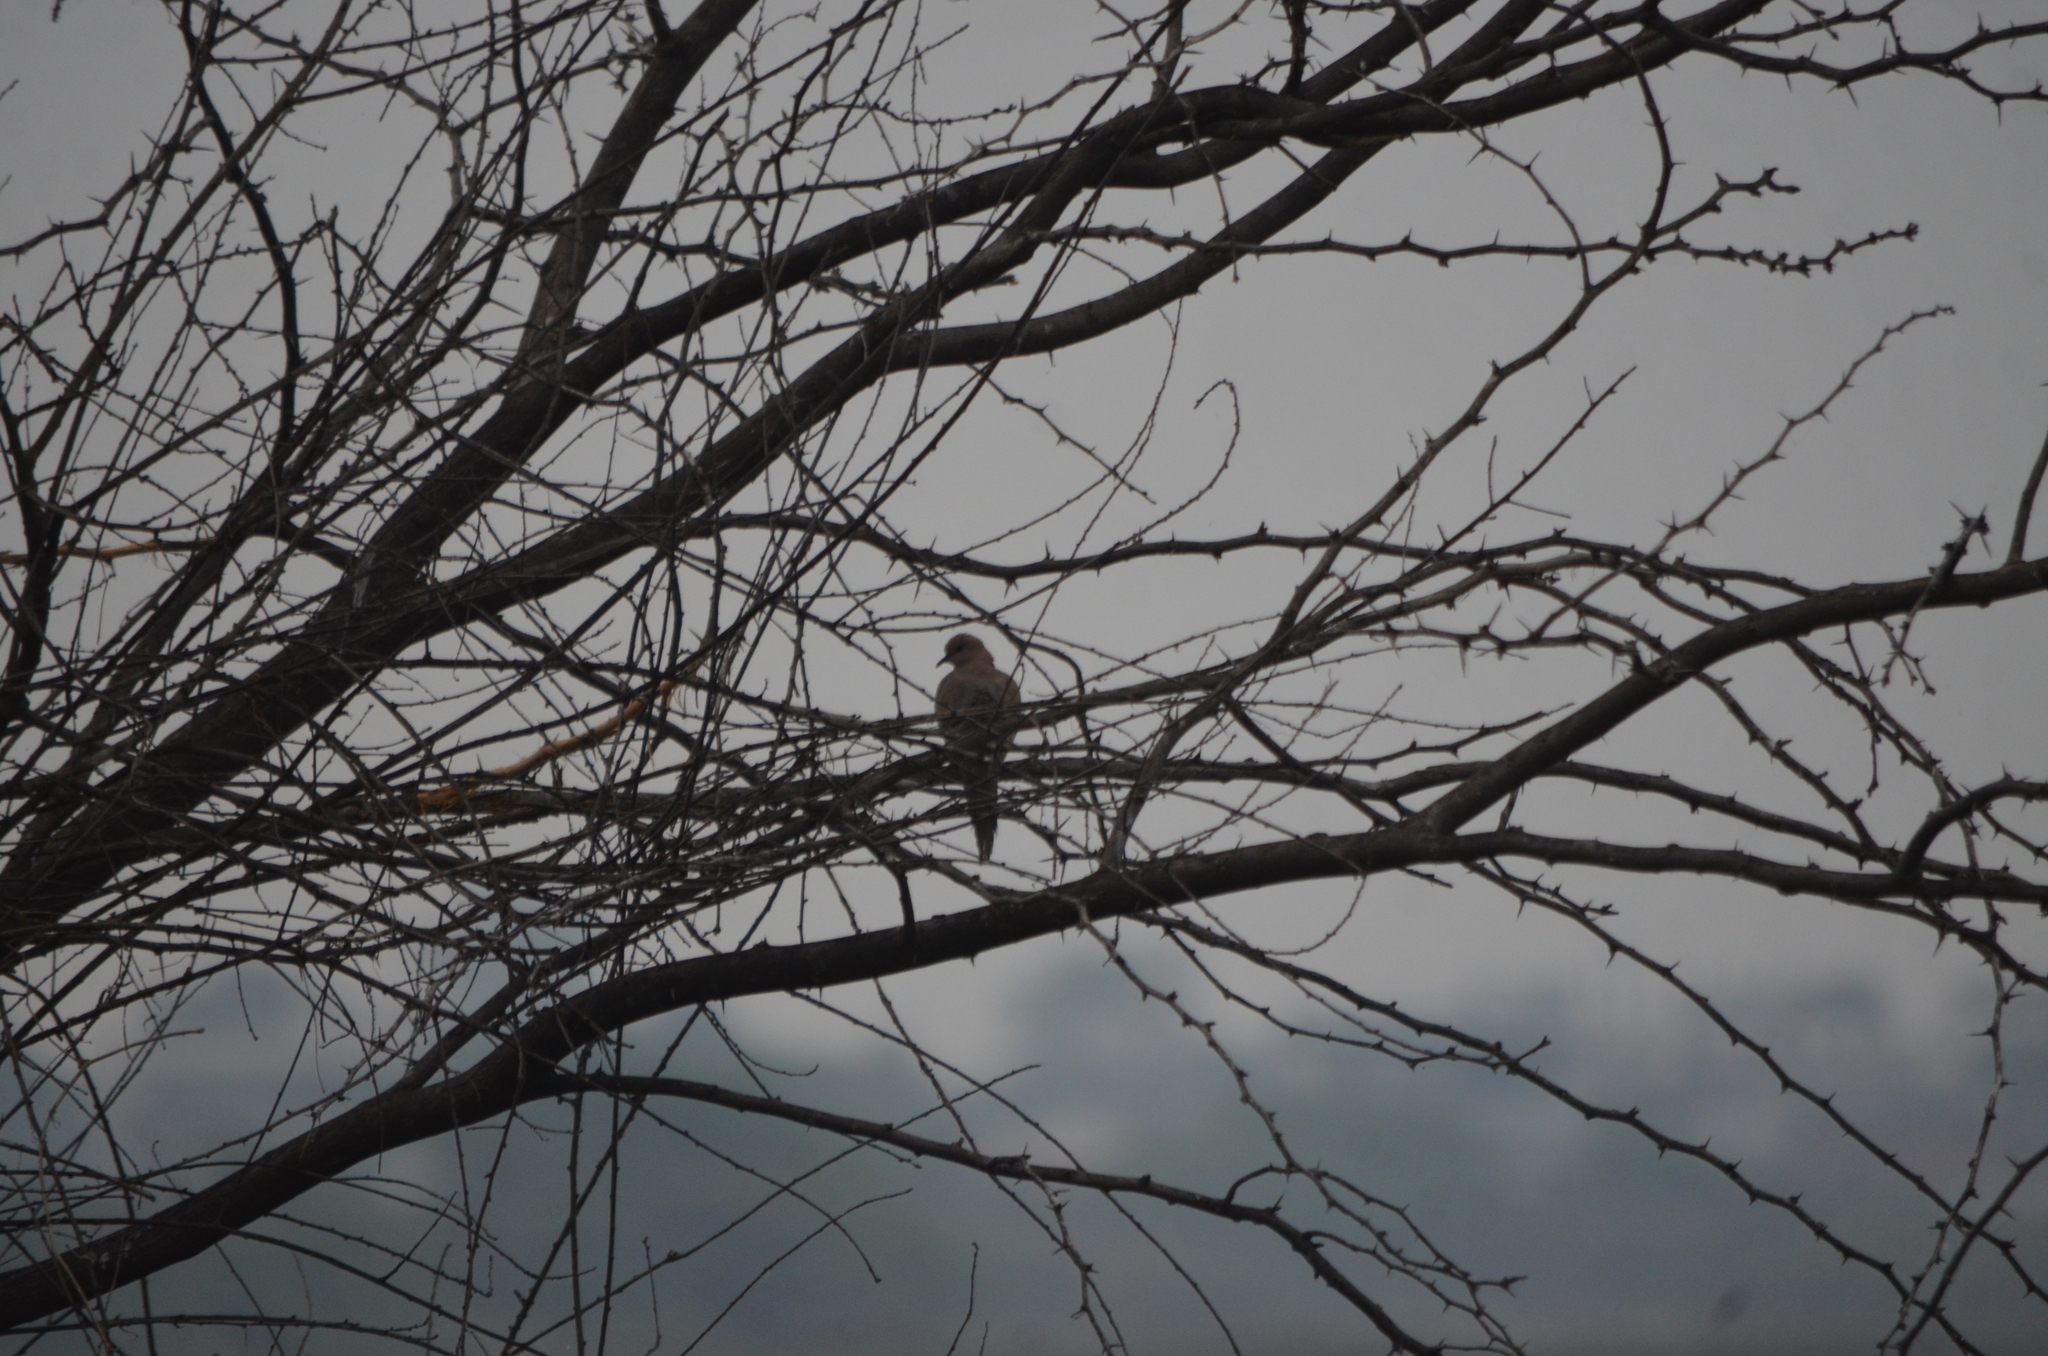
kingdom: Animalia
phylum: Chordata
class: Aves
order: Columbiformes
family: Columbidae
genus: Spilopelia
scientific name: Spilopelia senegalensis
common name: Laughing dove
